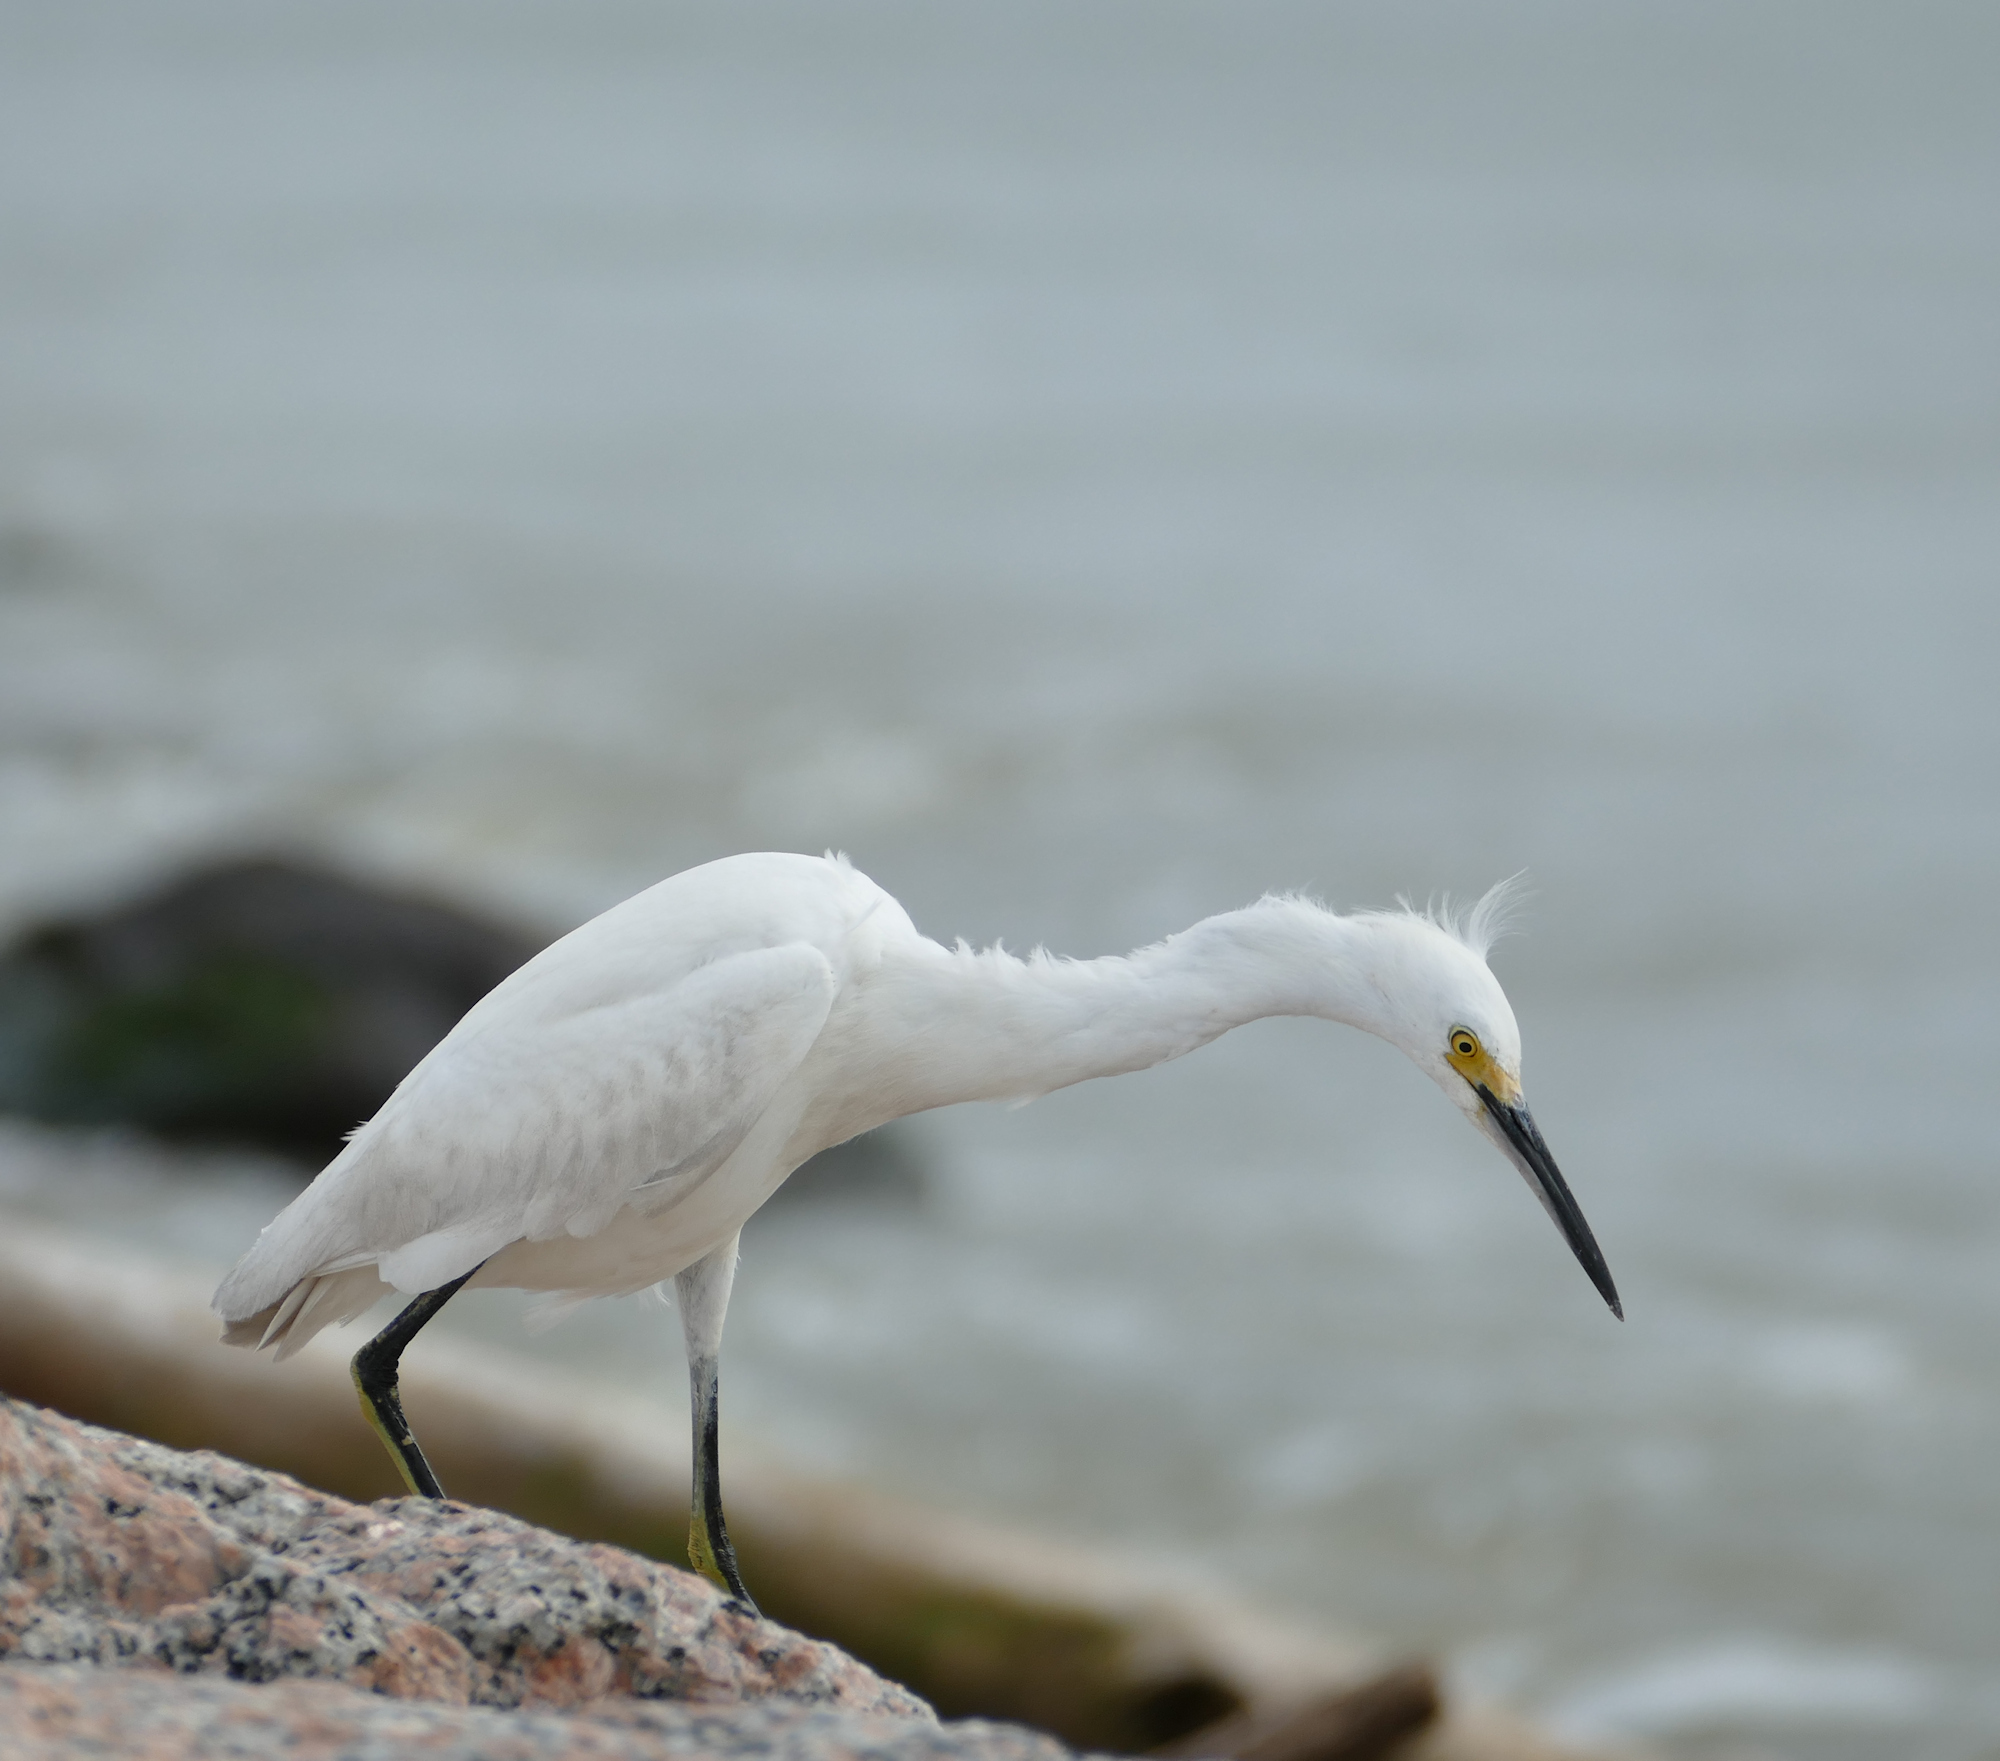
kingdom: Animalia
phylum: Chordata
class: Aves
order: Pelecaniformes
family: Ardeidae
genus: Egretta
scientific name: Egretta thula
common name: Snowy egret
